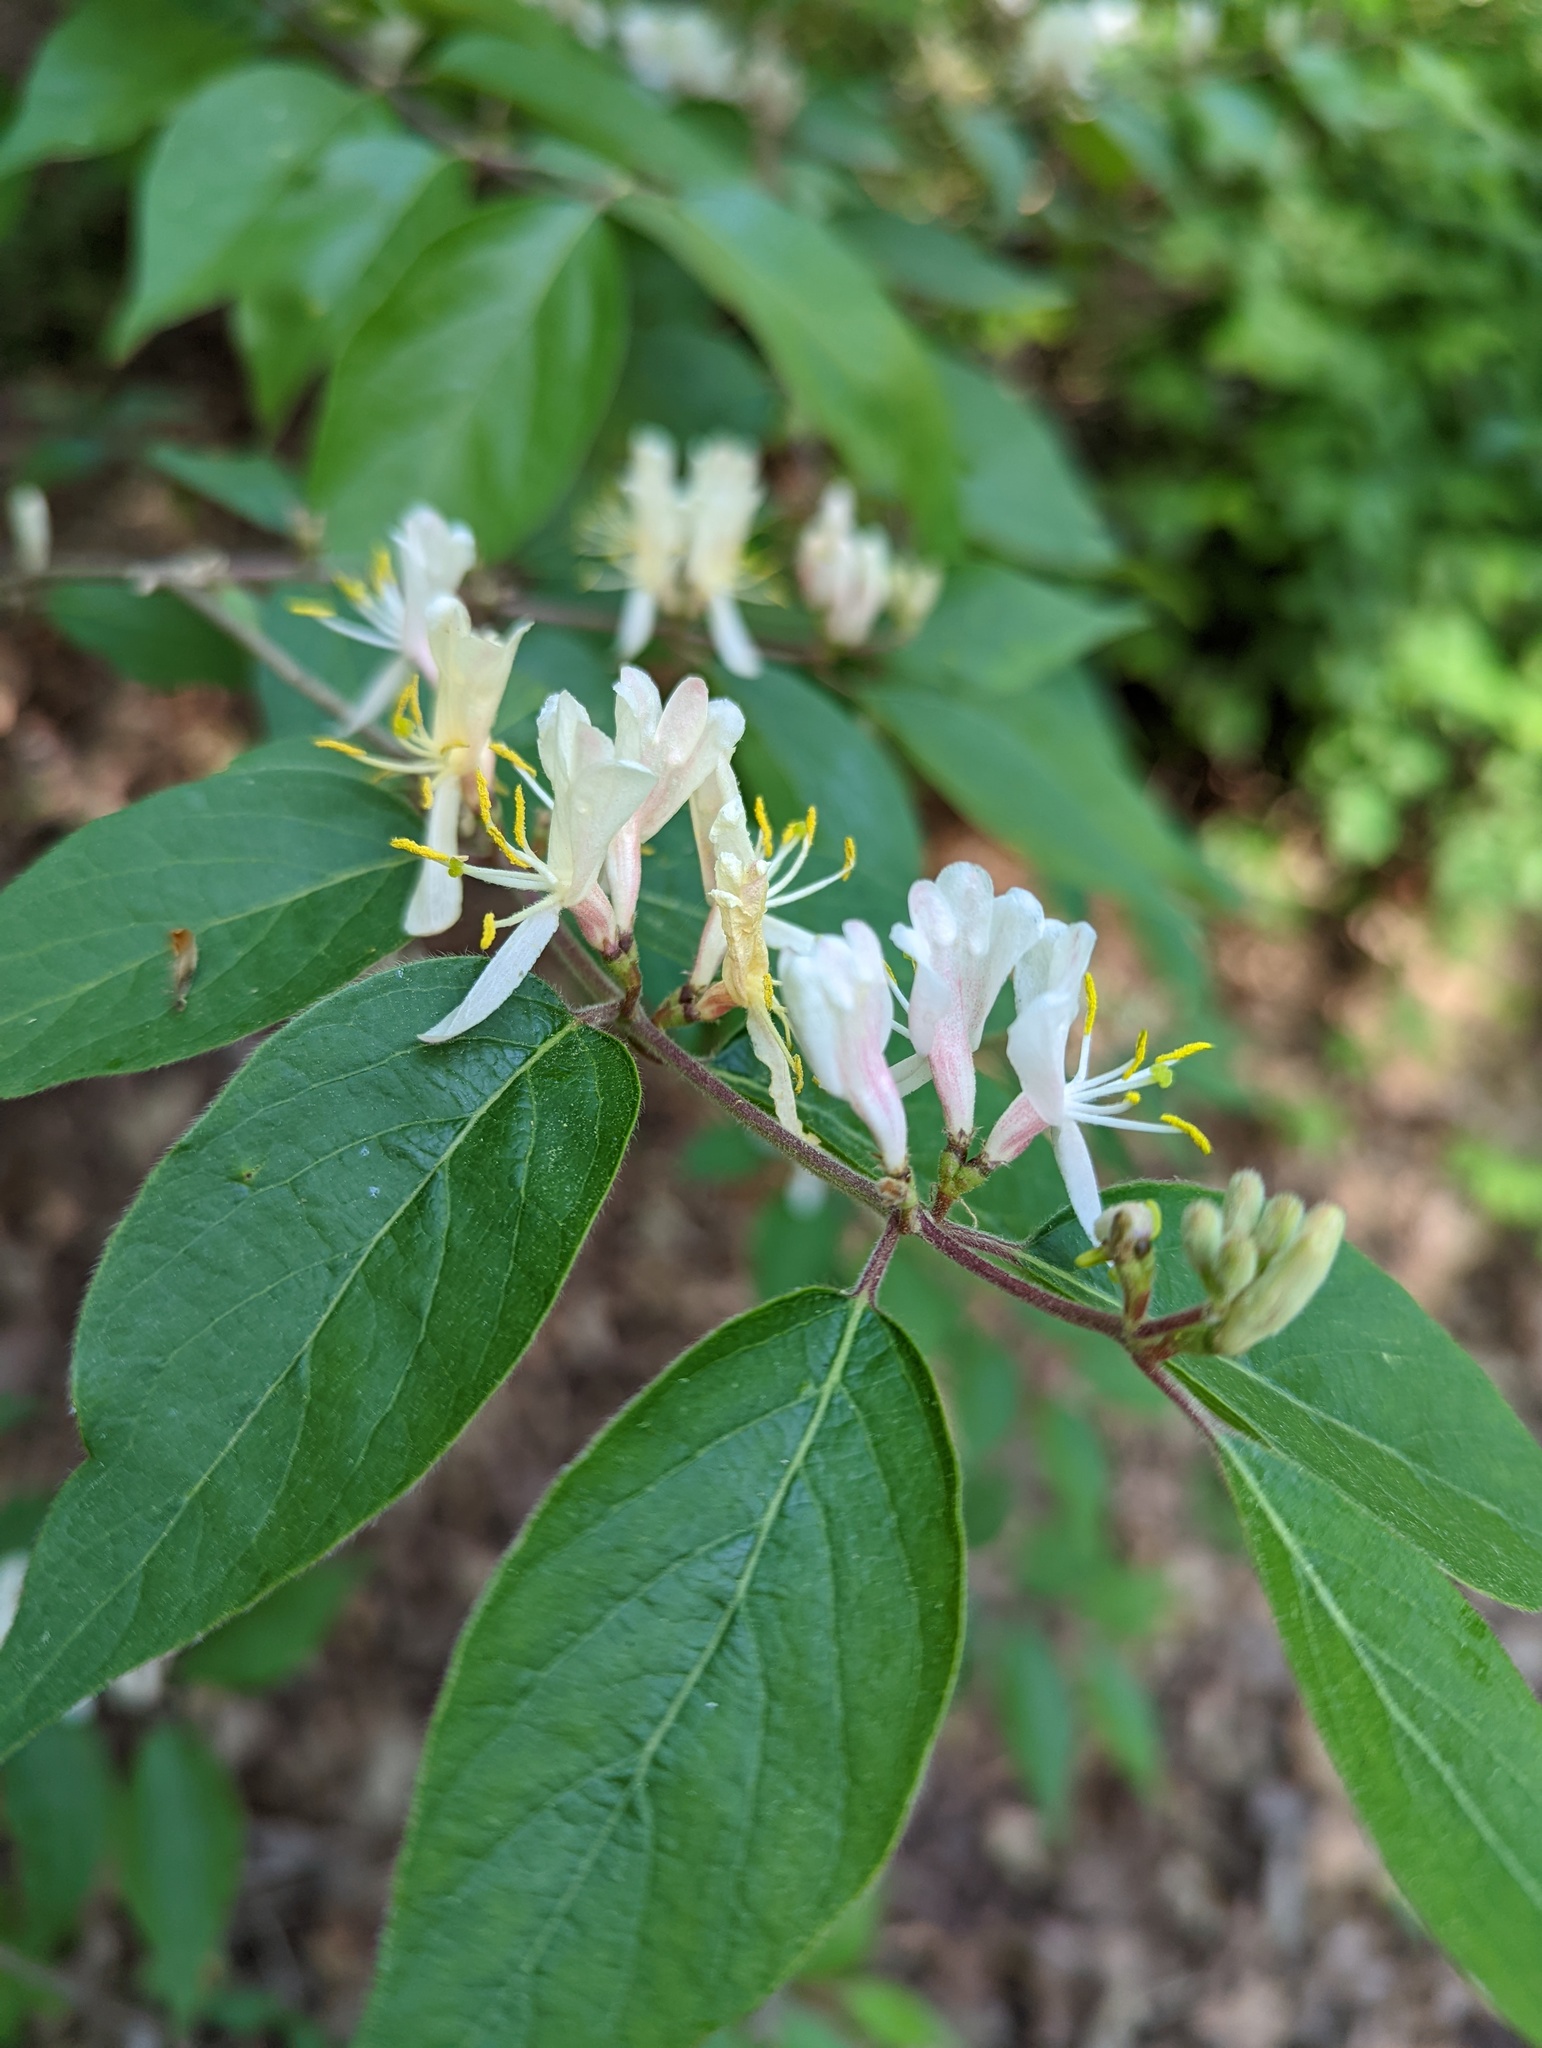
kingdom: Plantae
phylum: Tracheophyta
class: Magnoliopsida
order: Dipsacales
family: Caprifoliaceae
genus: Lonicera
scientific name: Lonicera japonica
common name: Japanese honeysuckle
